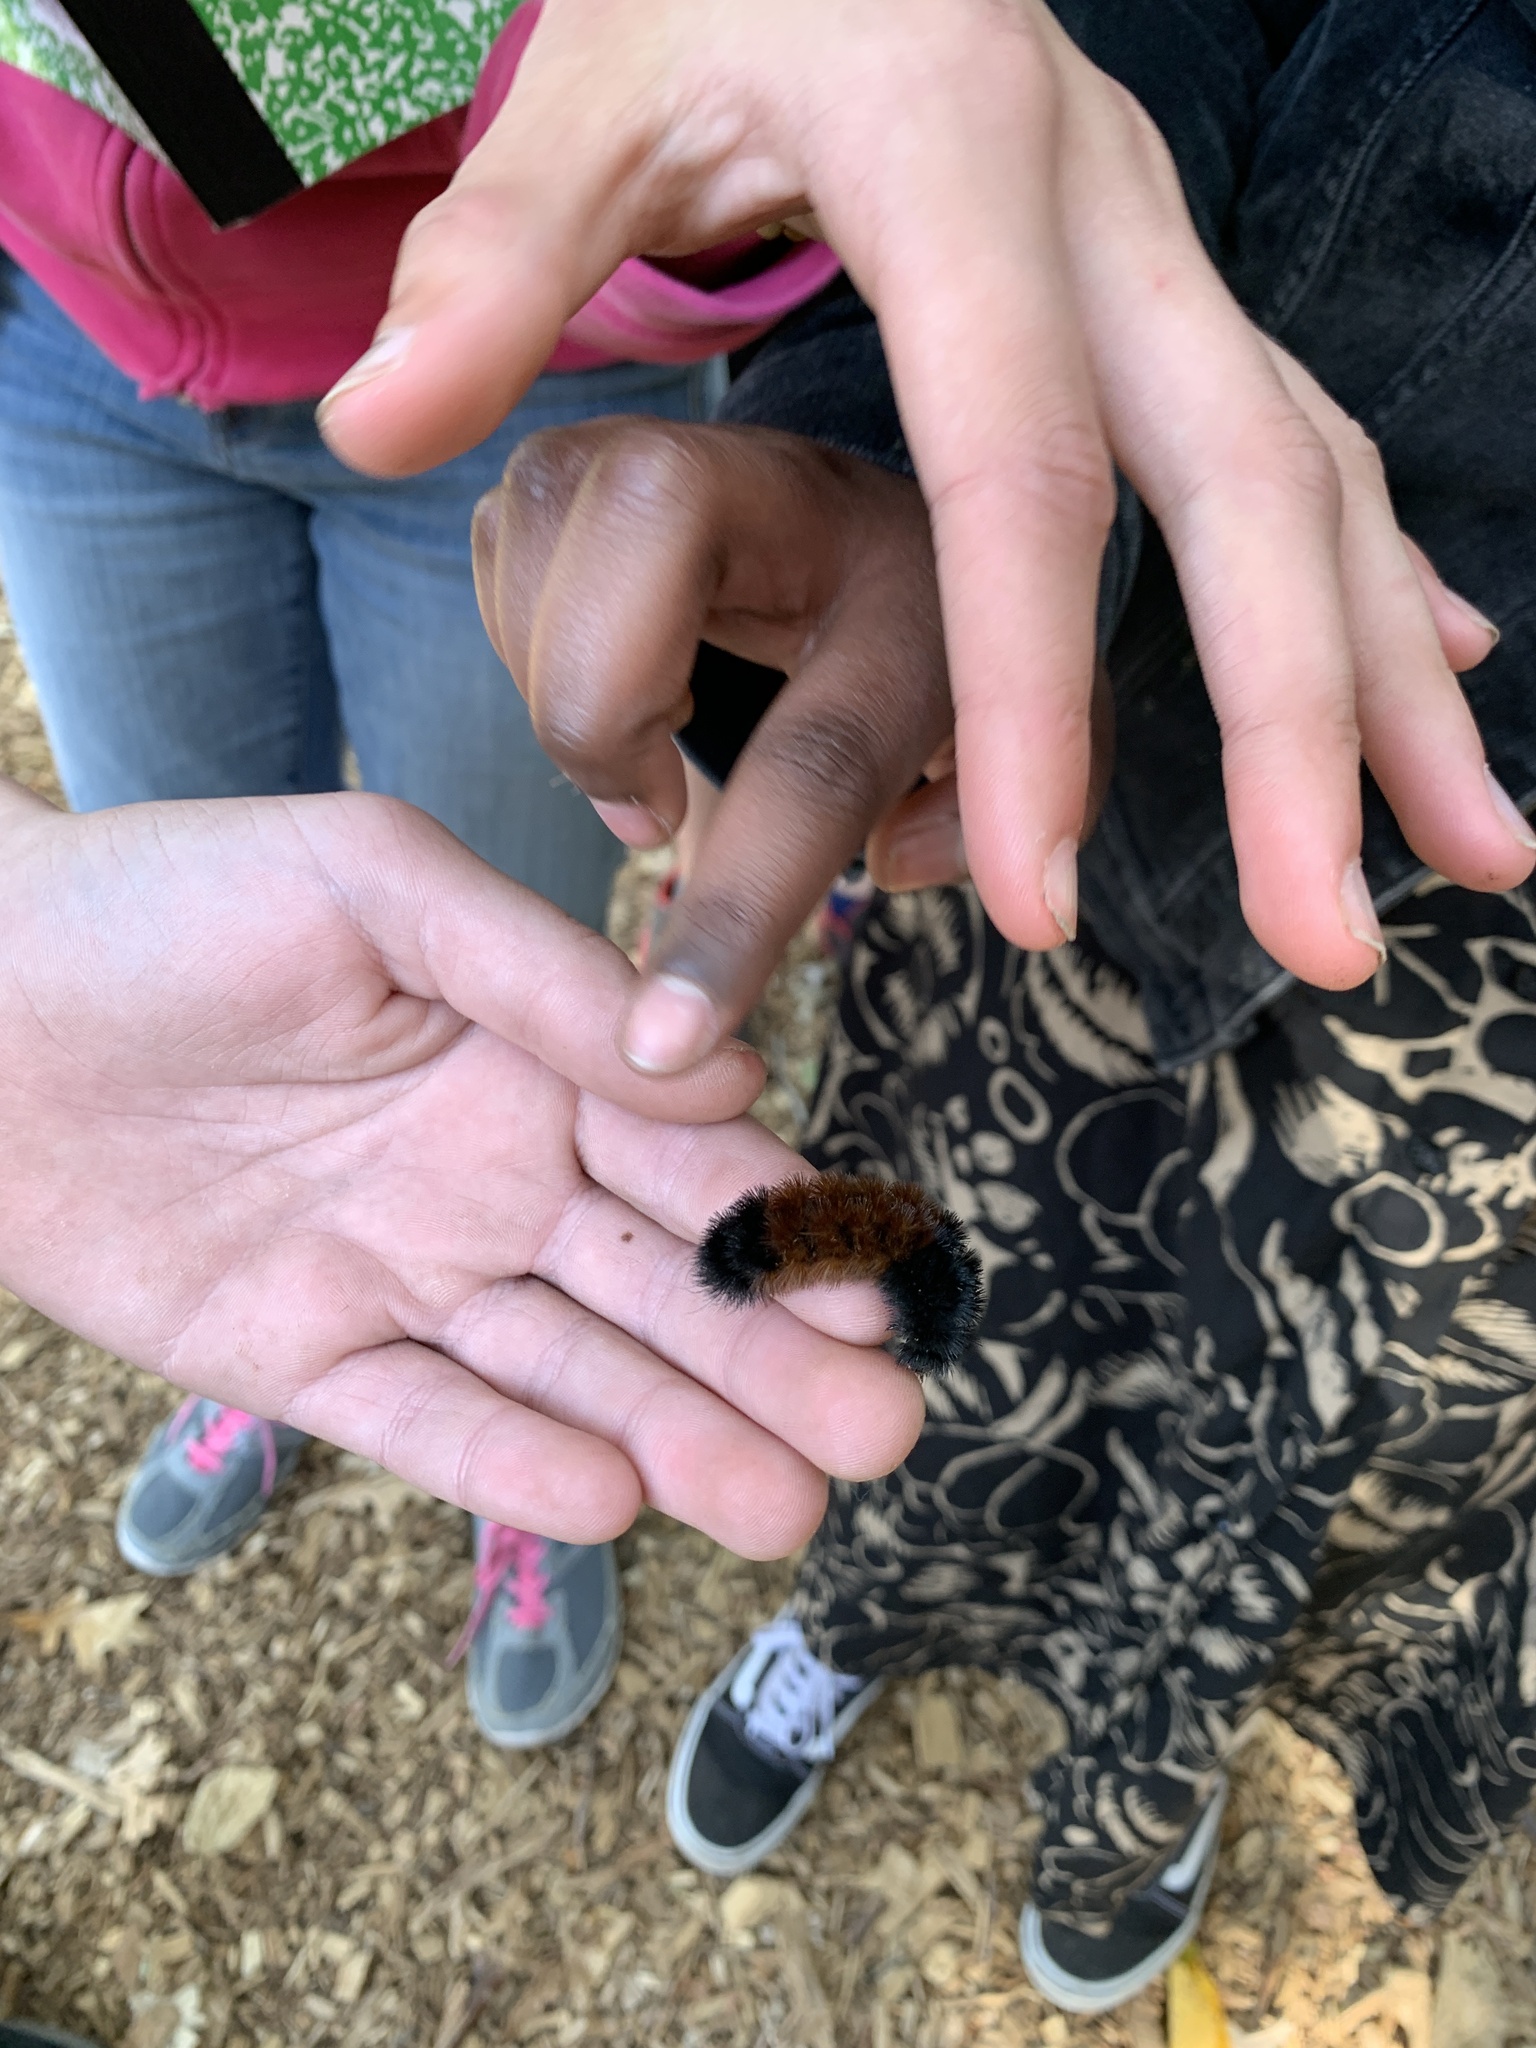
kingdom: Animalia
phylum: Arthropoda
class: Insecta
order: Lepidoptera
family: Erebidae
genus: Pyrrharctia
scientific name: Pyrrharctia isabella
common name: Isabella tiger moth
